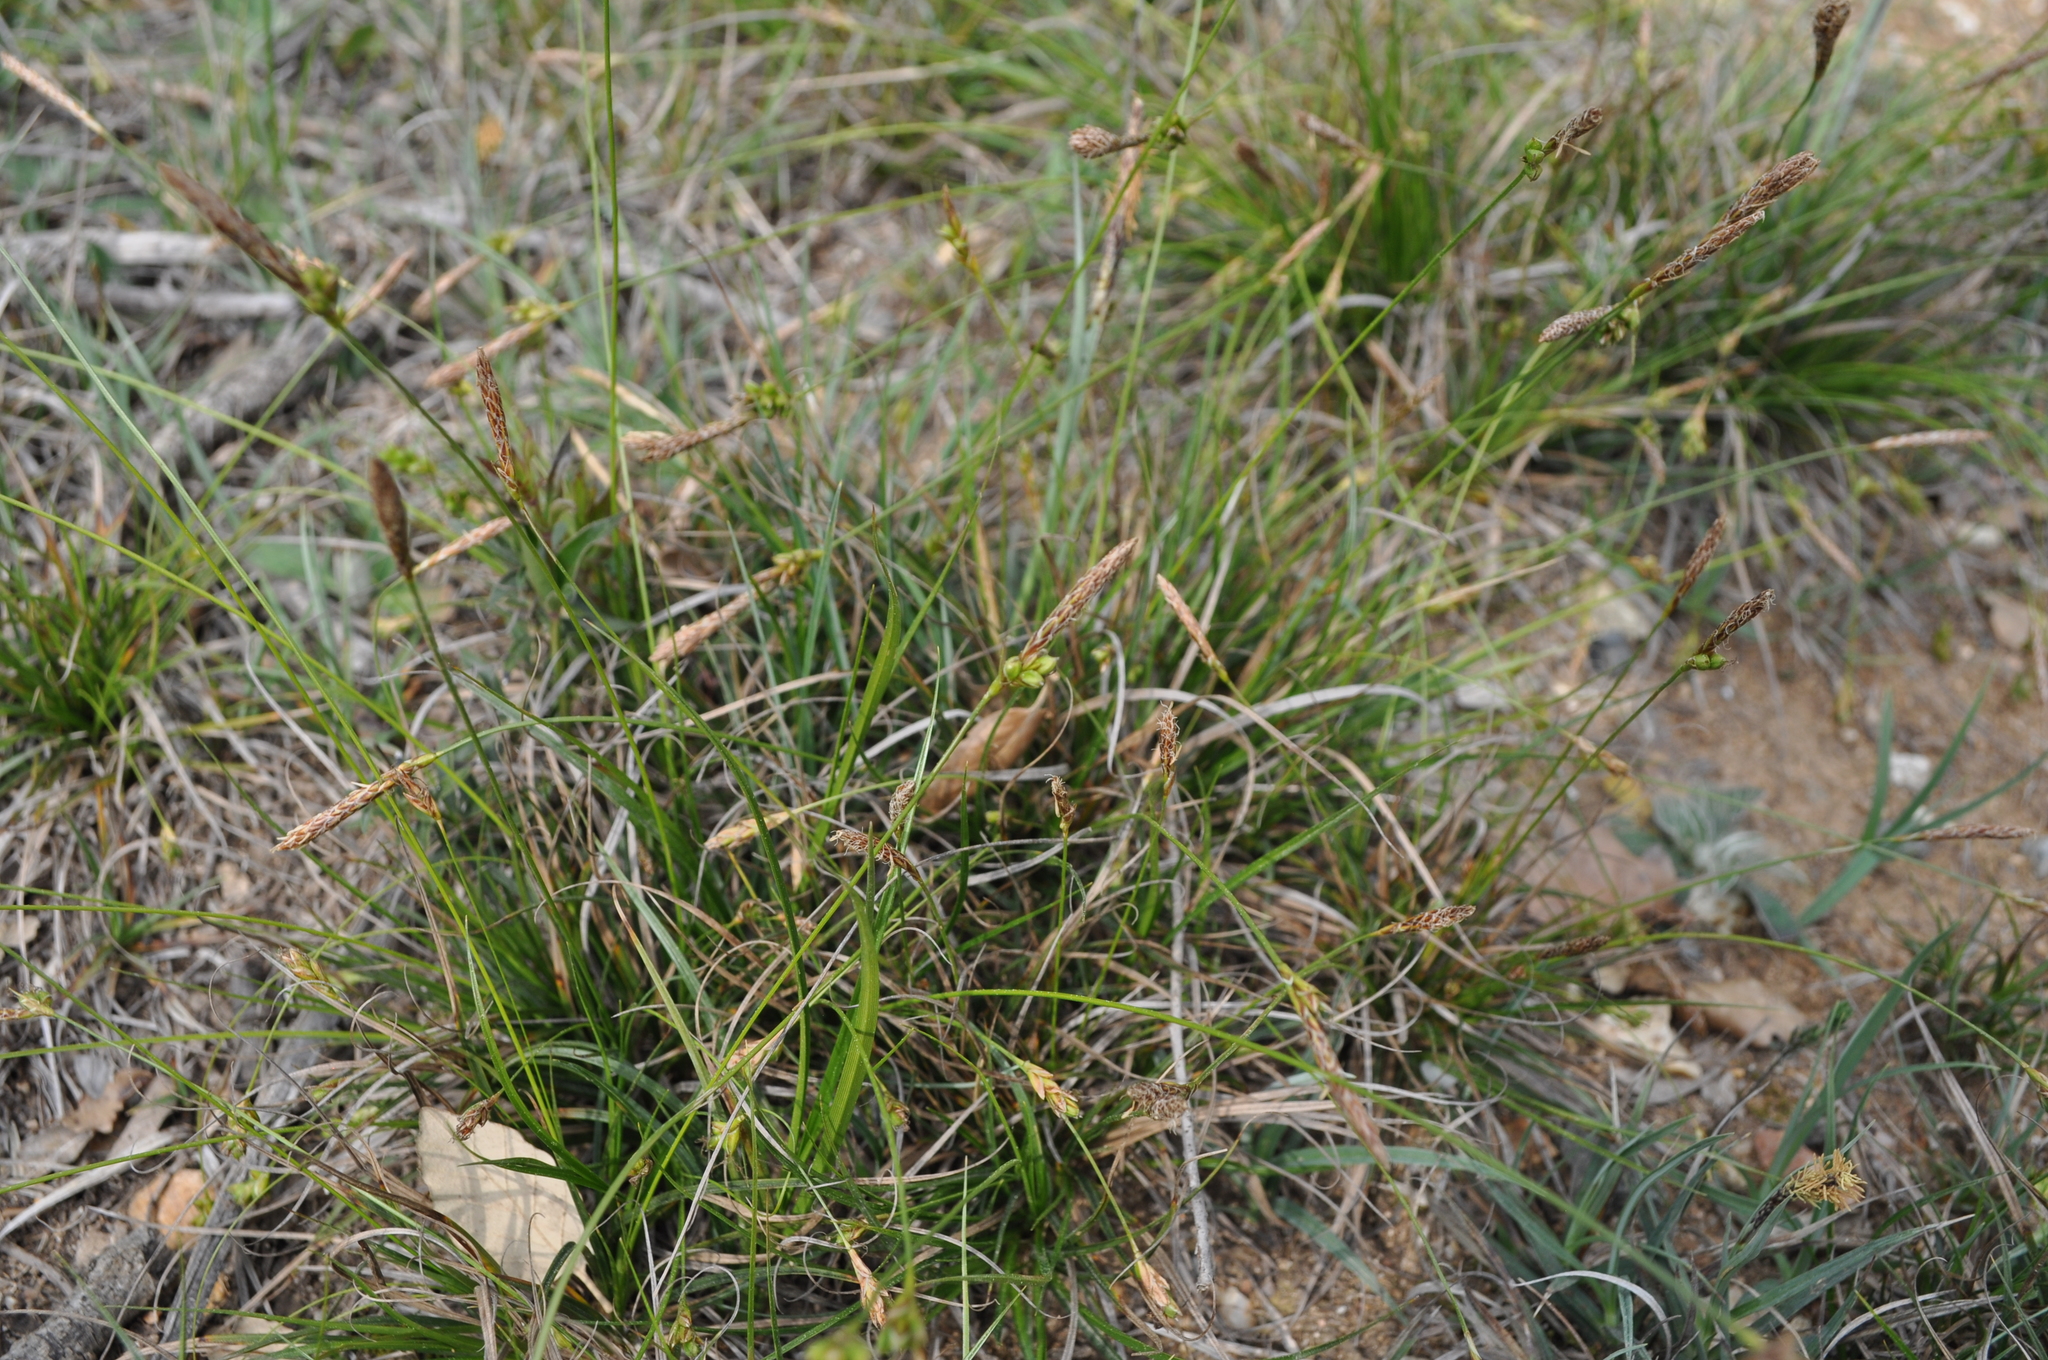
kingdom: Plantae
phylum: Tracheophyta
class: Liliopsida
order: Poales
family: Cyperaceae
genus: Carex
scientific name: Carex halleriana
